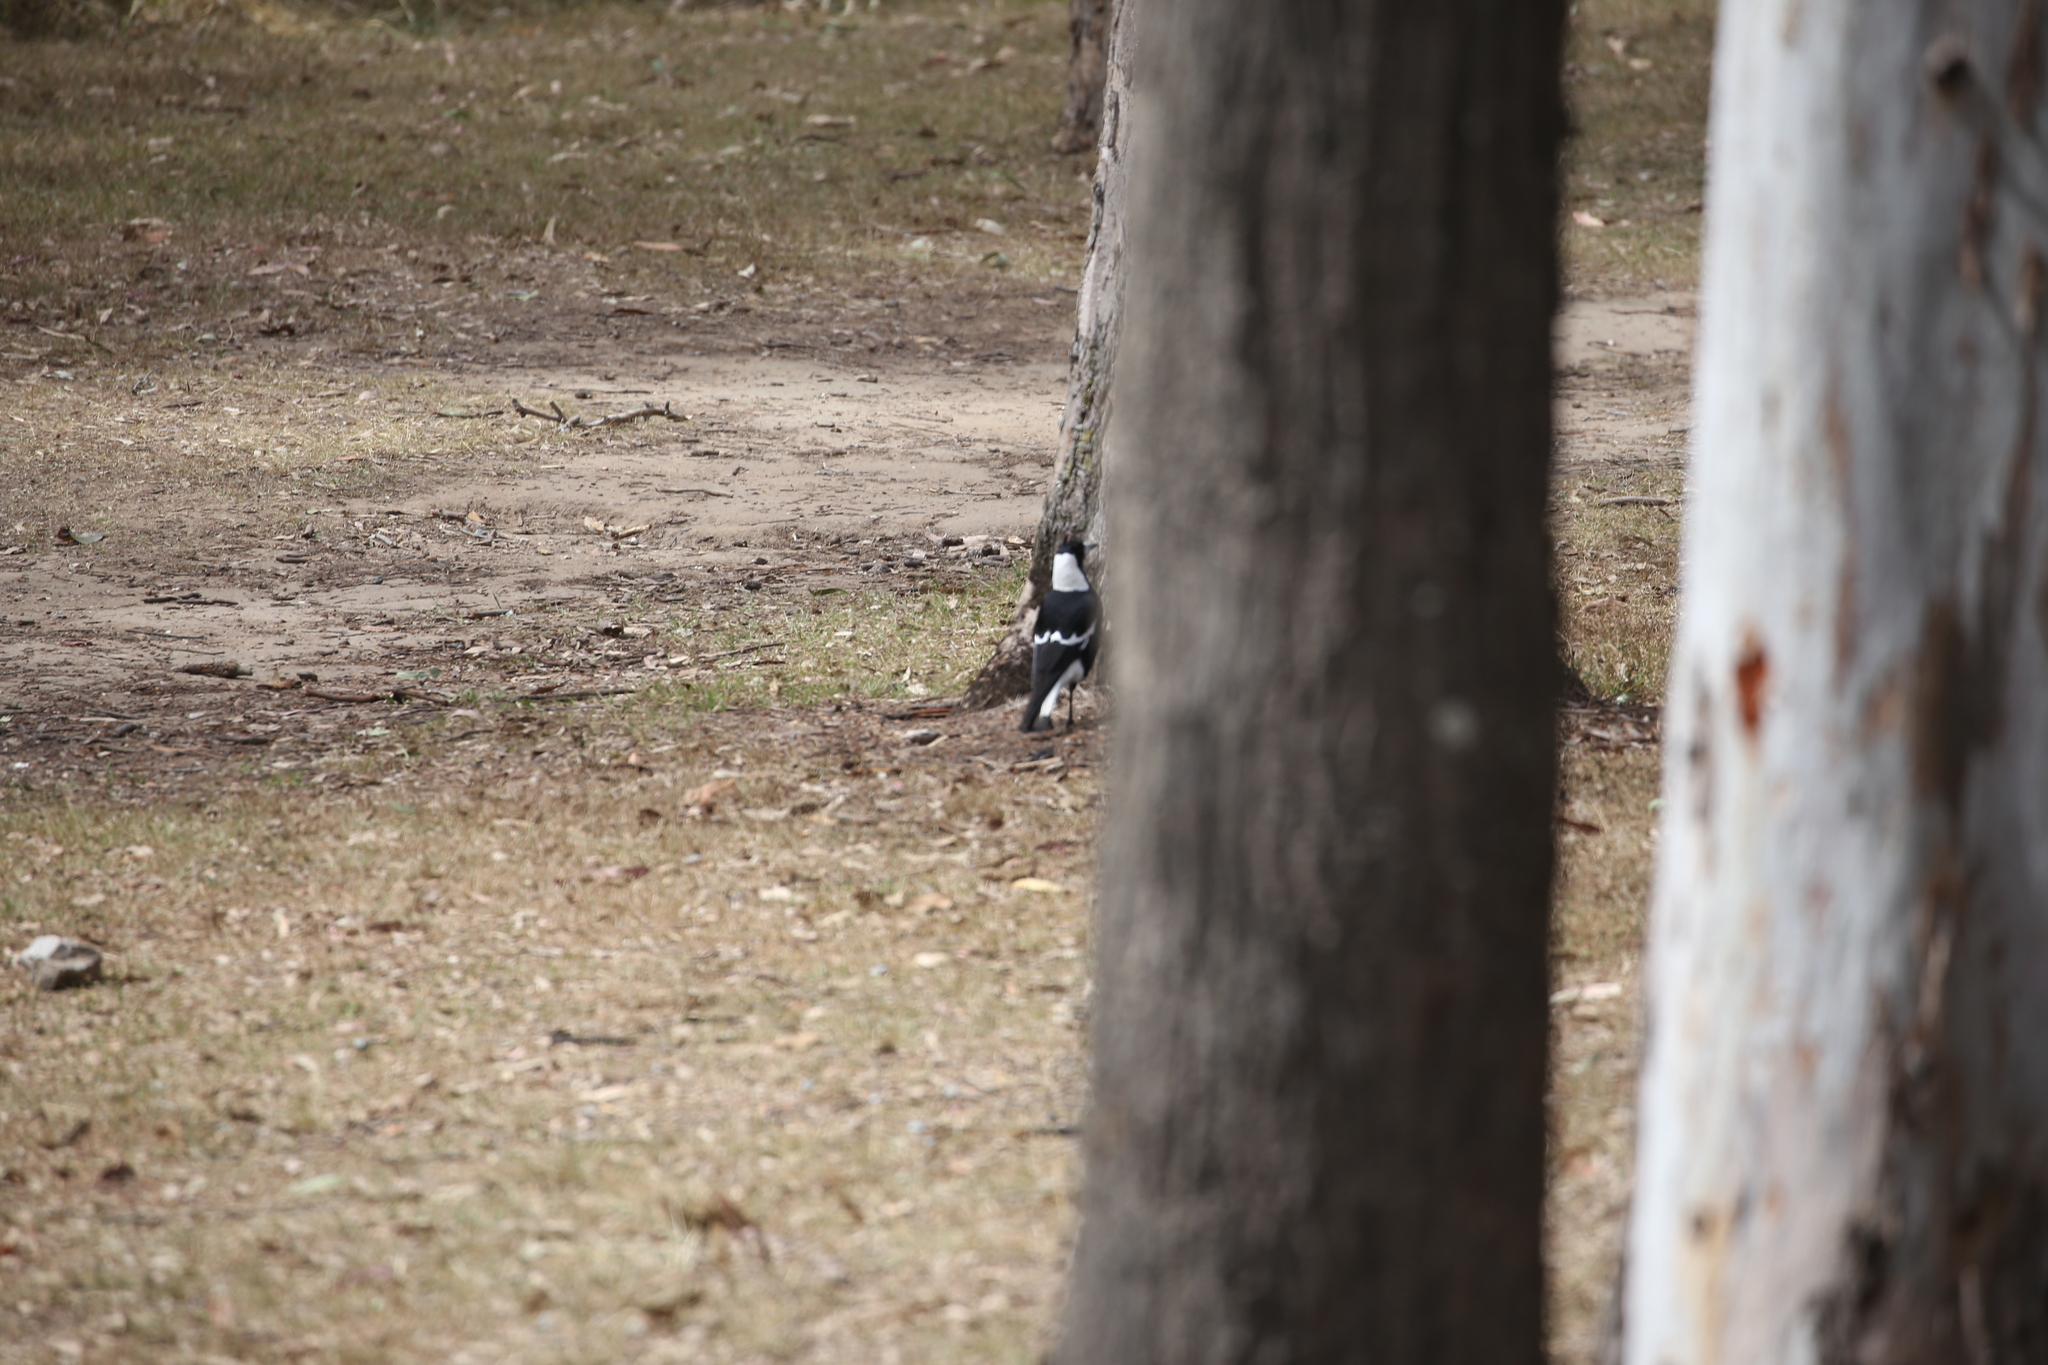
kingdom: Animalia
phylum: Chordata
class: Aves
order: Passeriformes
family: Cracticidae
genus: Gymnorhina
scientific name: Gymnorhina tibicen
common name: Australian magpie
